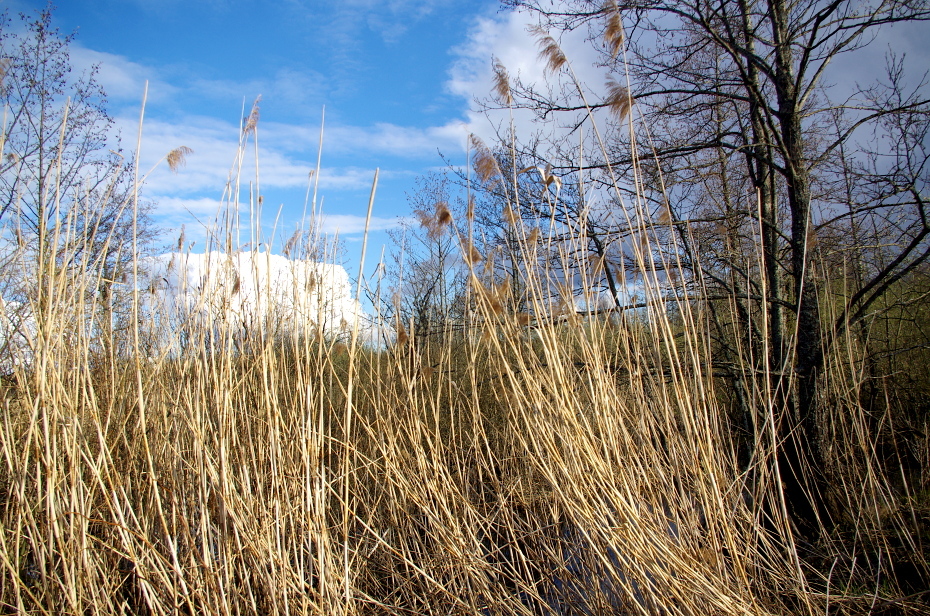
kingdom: Plantae
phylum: Tracheophyta
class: Liliopsida
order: Poales
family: Poaceae
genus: Phragmites
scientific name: Phragmites australis
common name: Common reed
